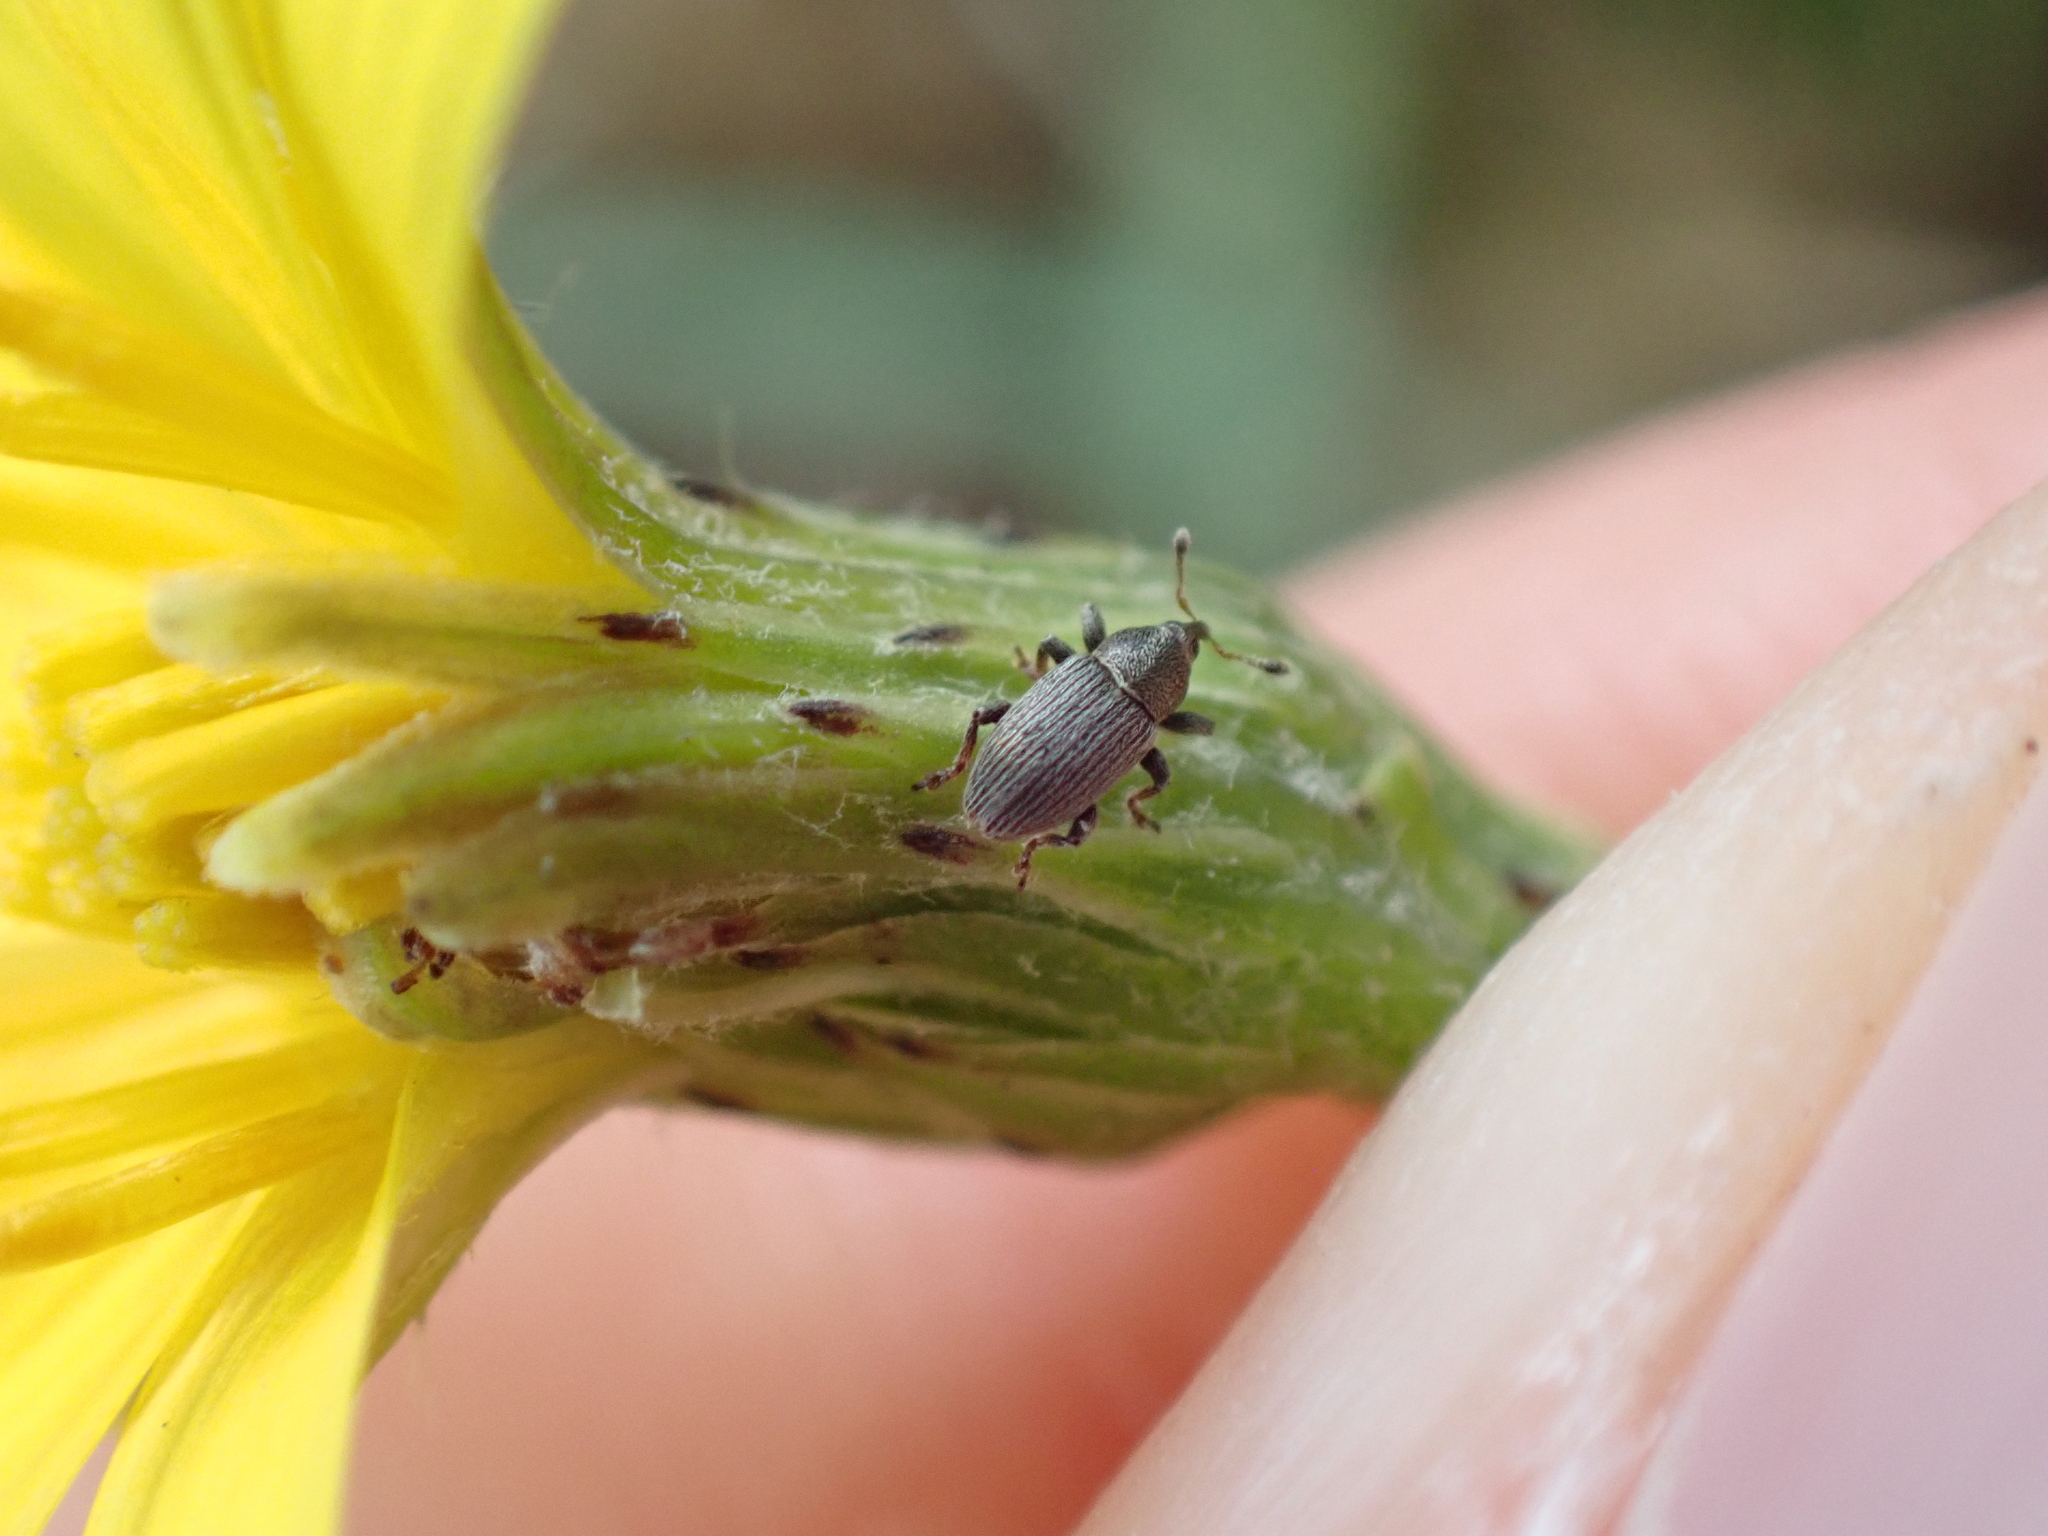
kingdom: Animalia
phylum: Arthropoda
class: Insecta
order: Coleoptera
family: Curculionidae
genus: Tychius
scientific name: Tychius picirostris
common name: Clover seed weevil
